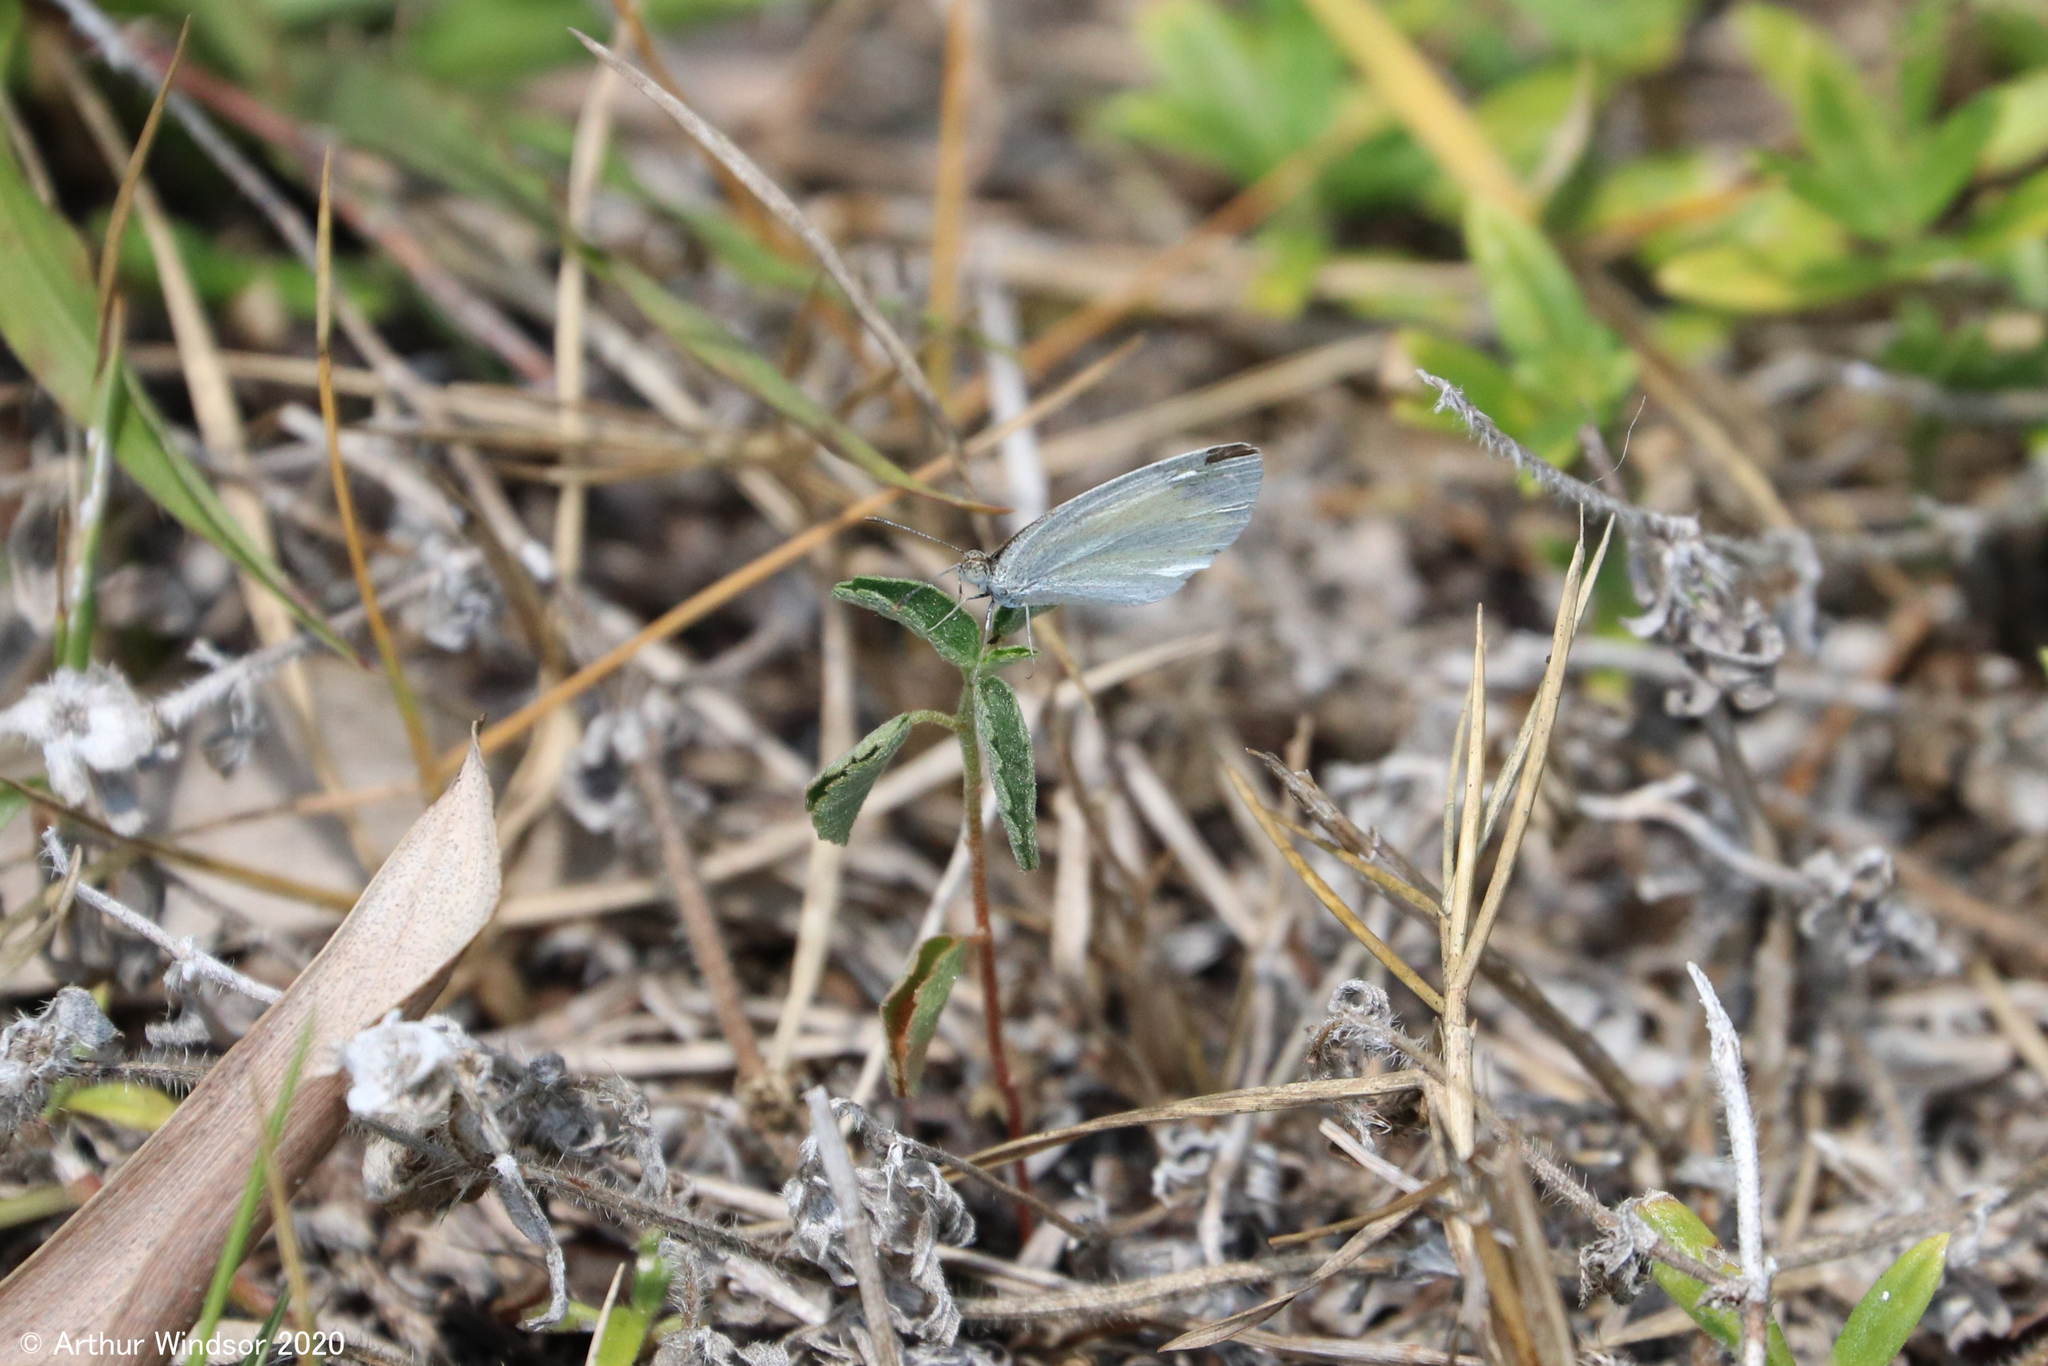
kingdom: Animalia
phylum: Arthropoda
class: Insecta
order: Lepidoptera
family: Pieridae
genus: Eurema
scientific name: Eurema daira
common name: Barred sulphur
